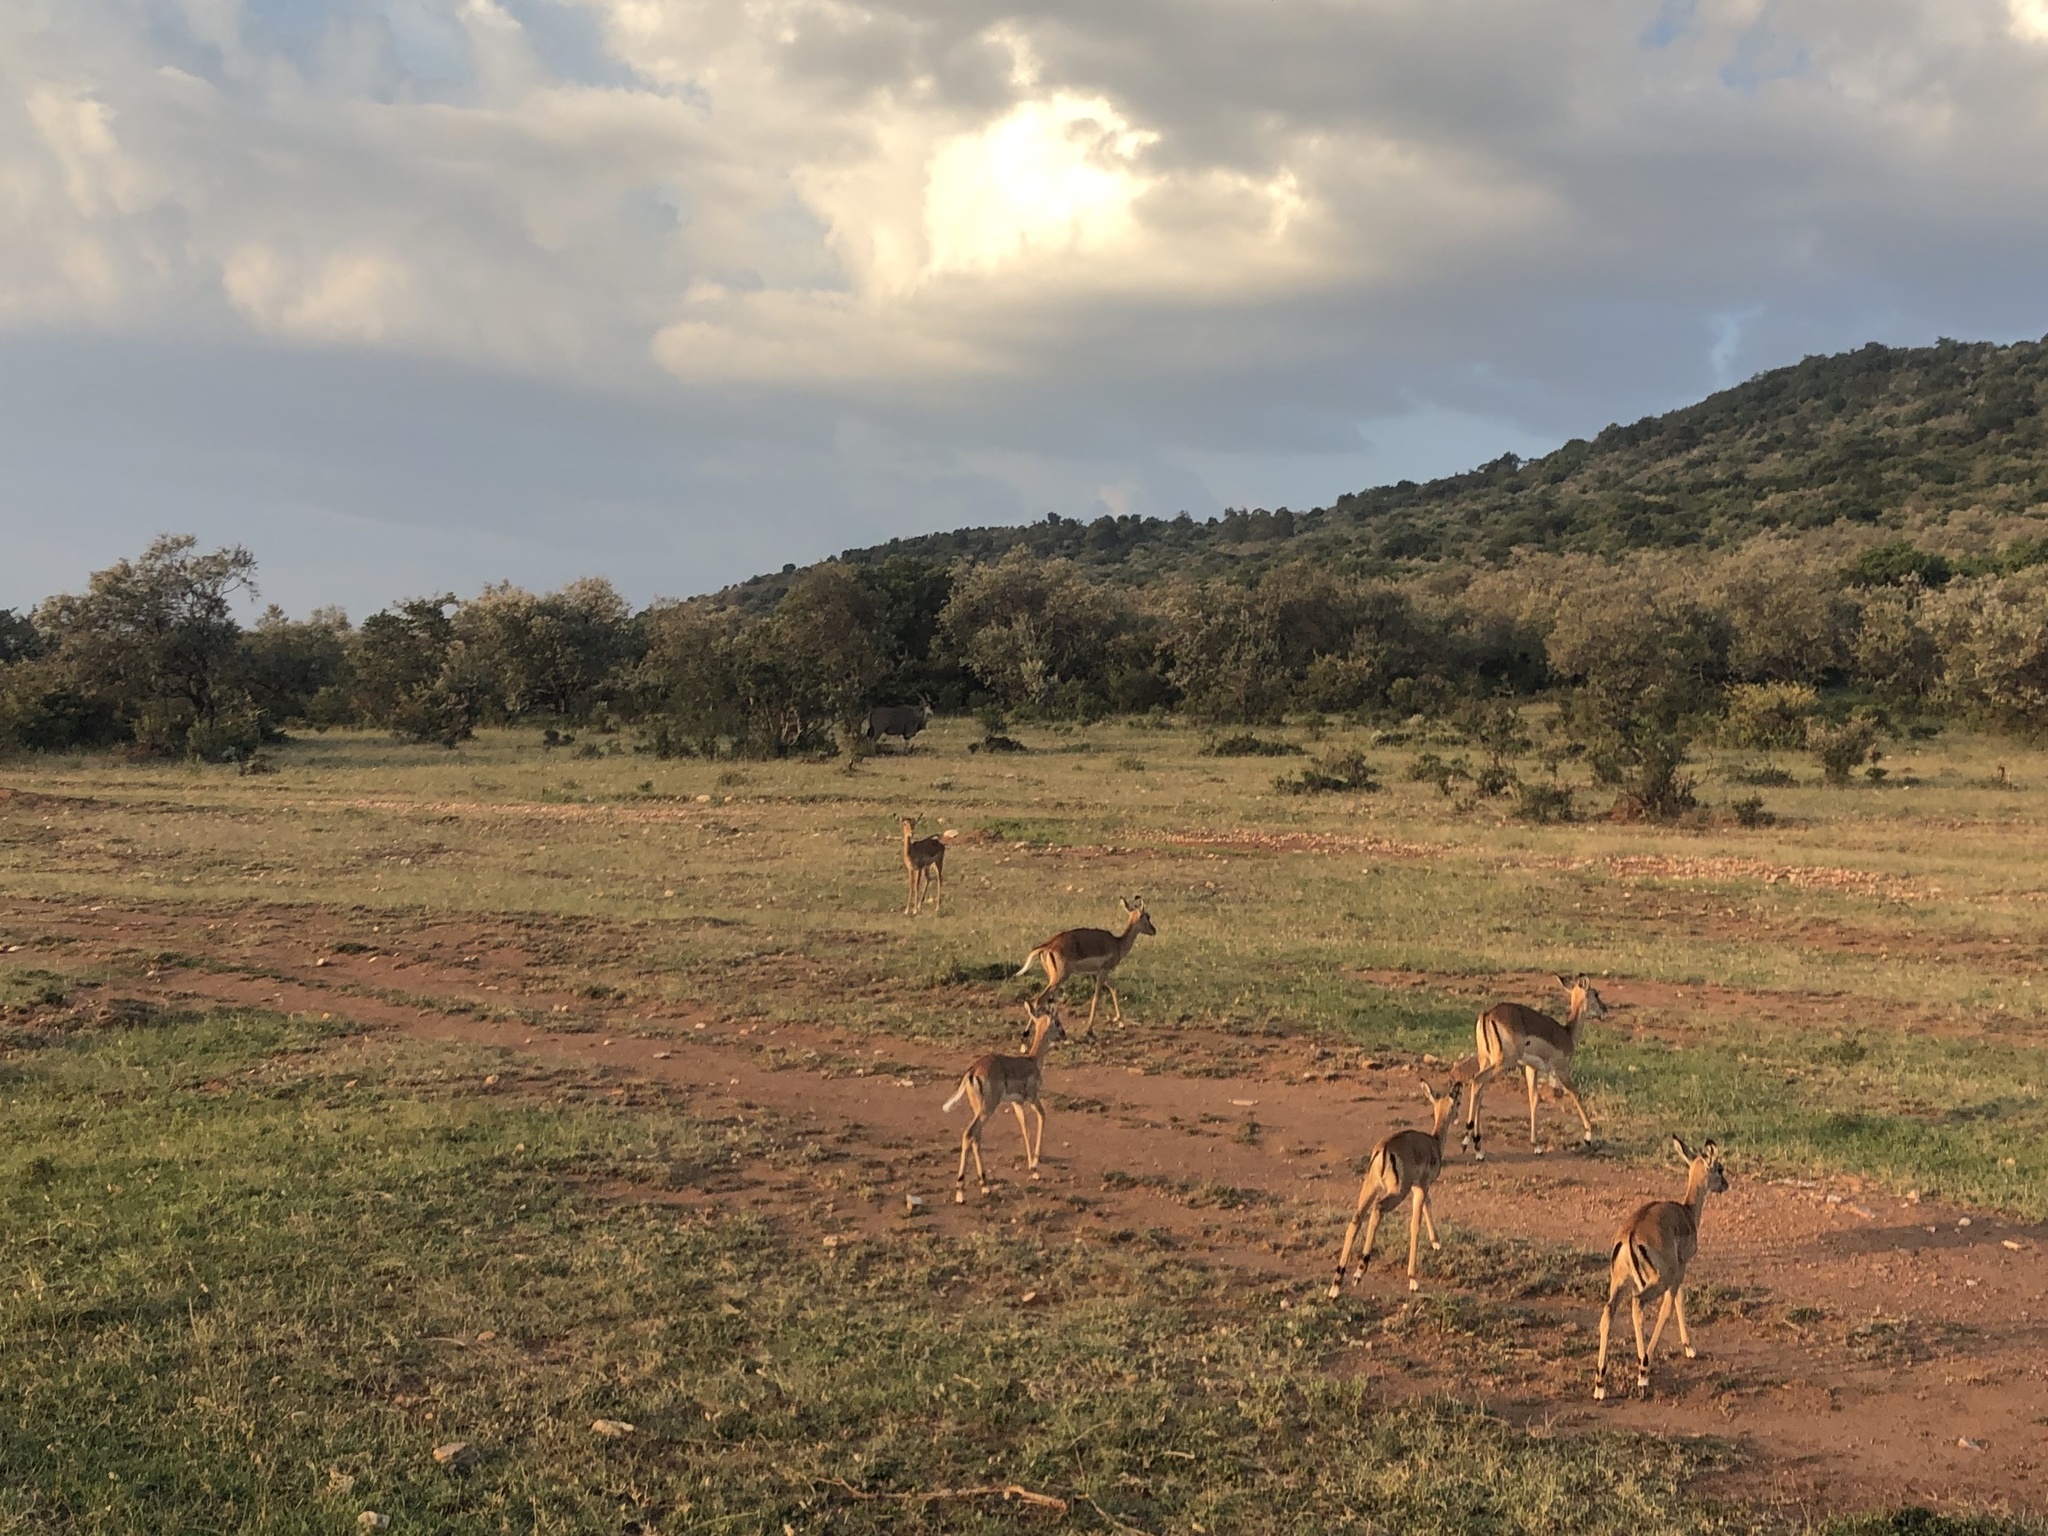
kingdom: Animalia
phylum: Chordata
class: Mammalia
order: Artiodactyla
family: Bovidae
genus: Aepyceros
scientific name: Aepyceros melampus
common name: Impala
